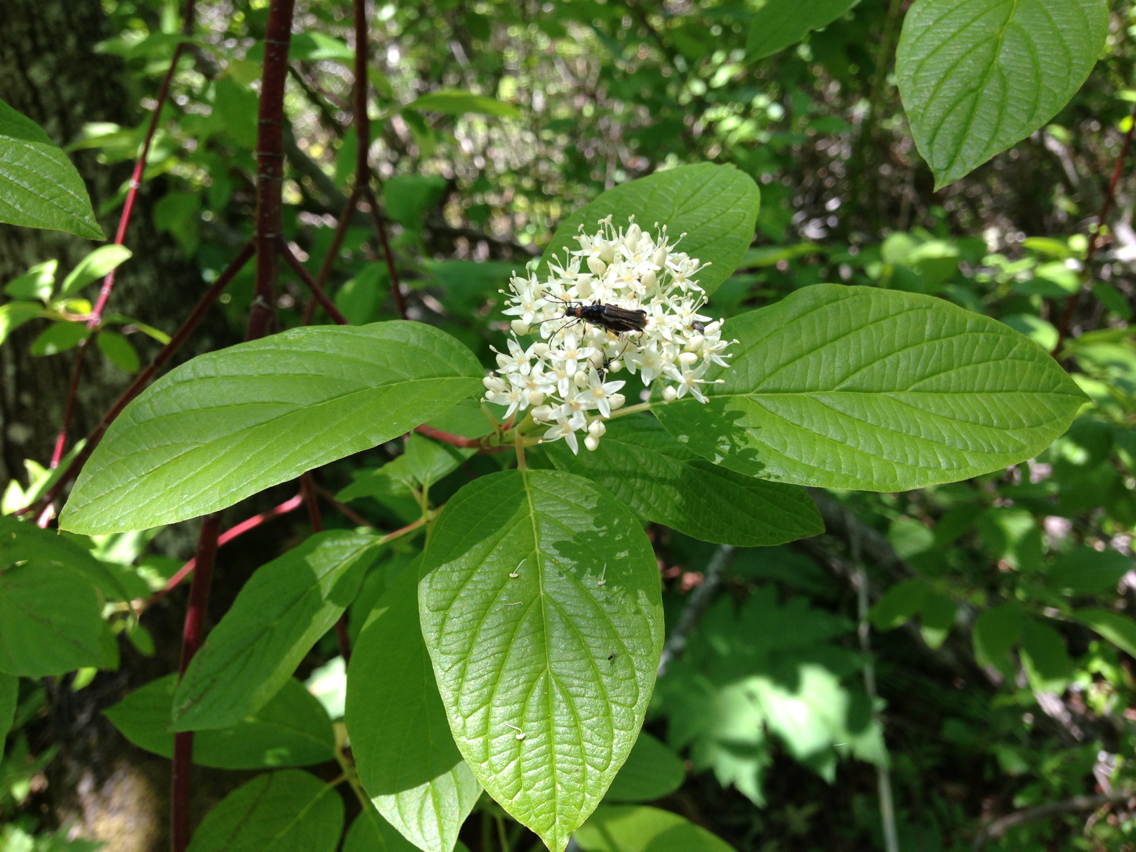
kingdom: Plantae
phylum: Tracheophyta
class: Magnoliopsida
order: Cornales
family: Cornaceae
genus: Cornus
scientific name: Cornus sericea
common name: Red-osier dogwood
